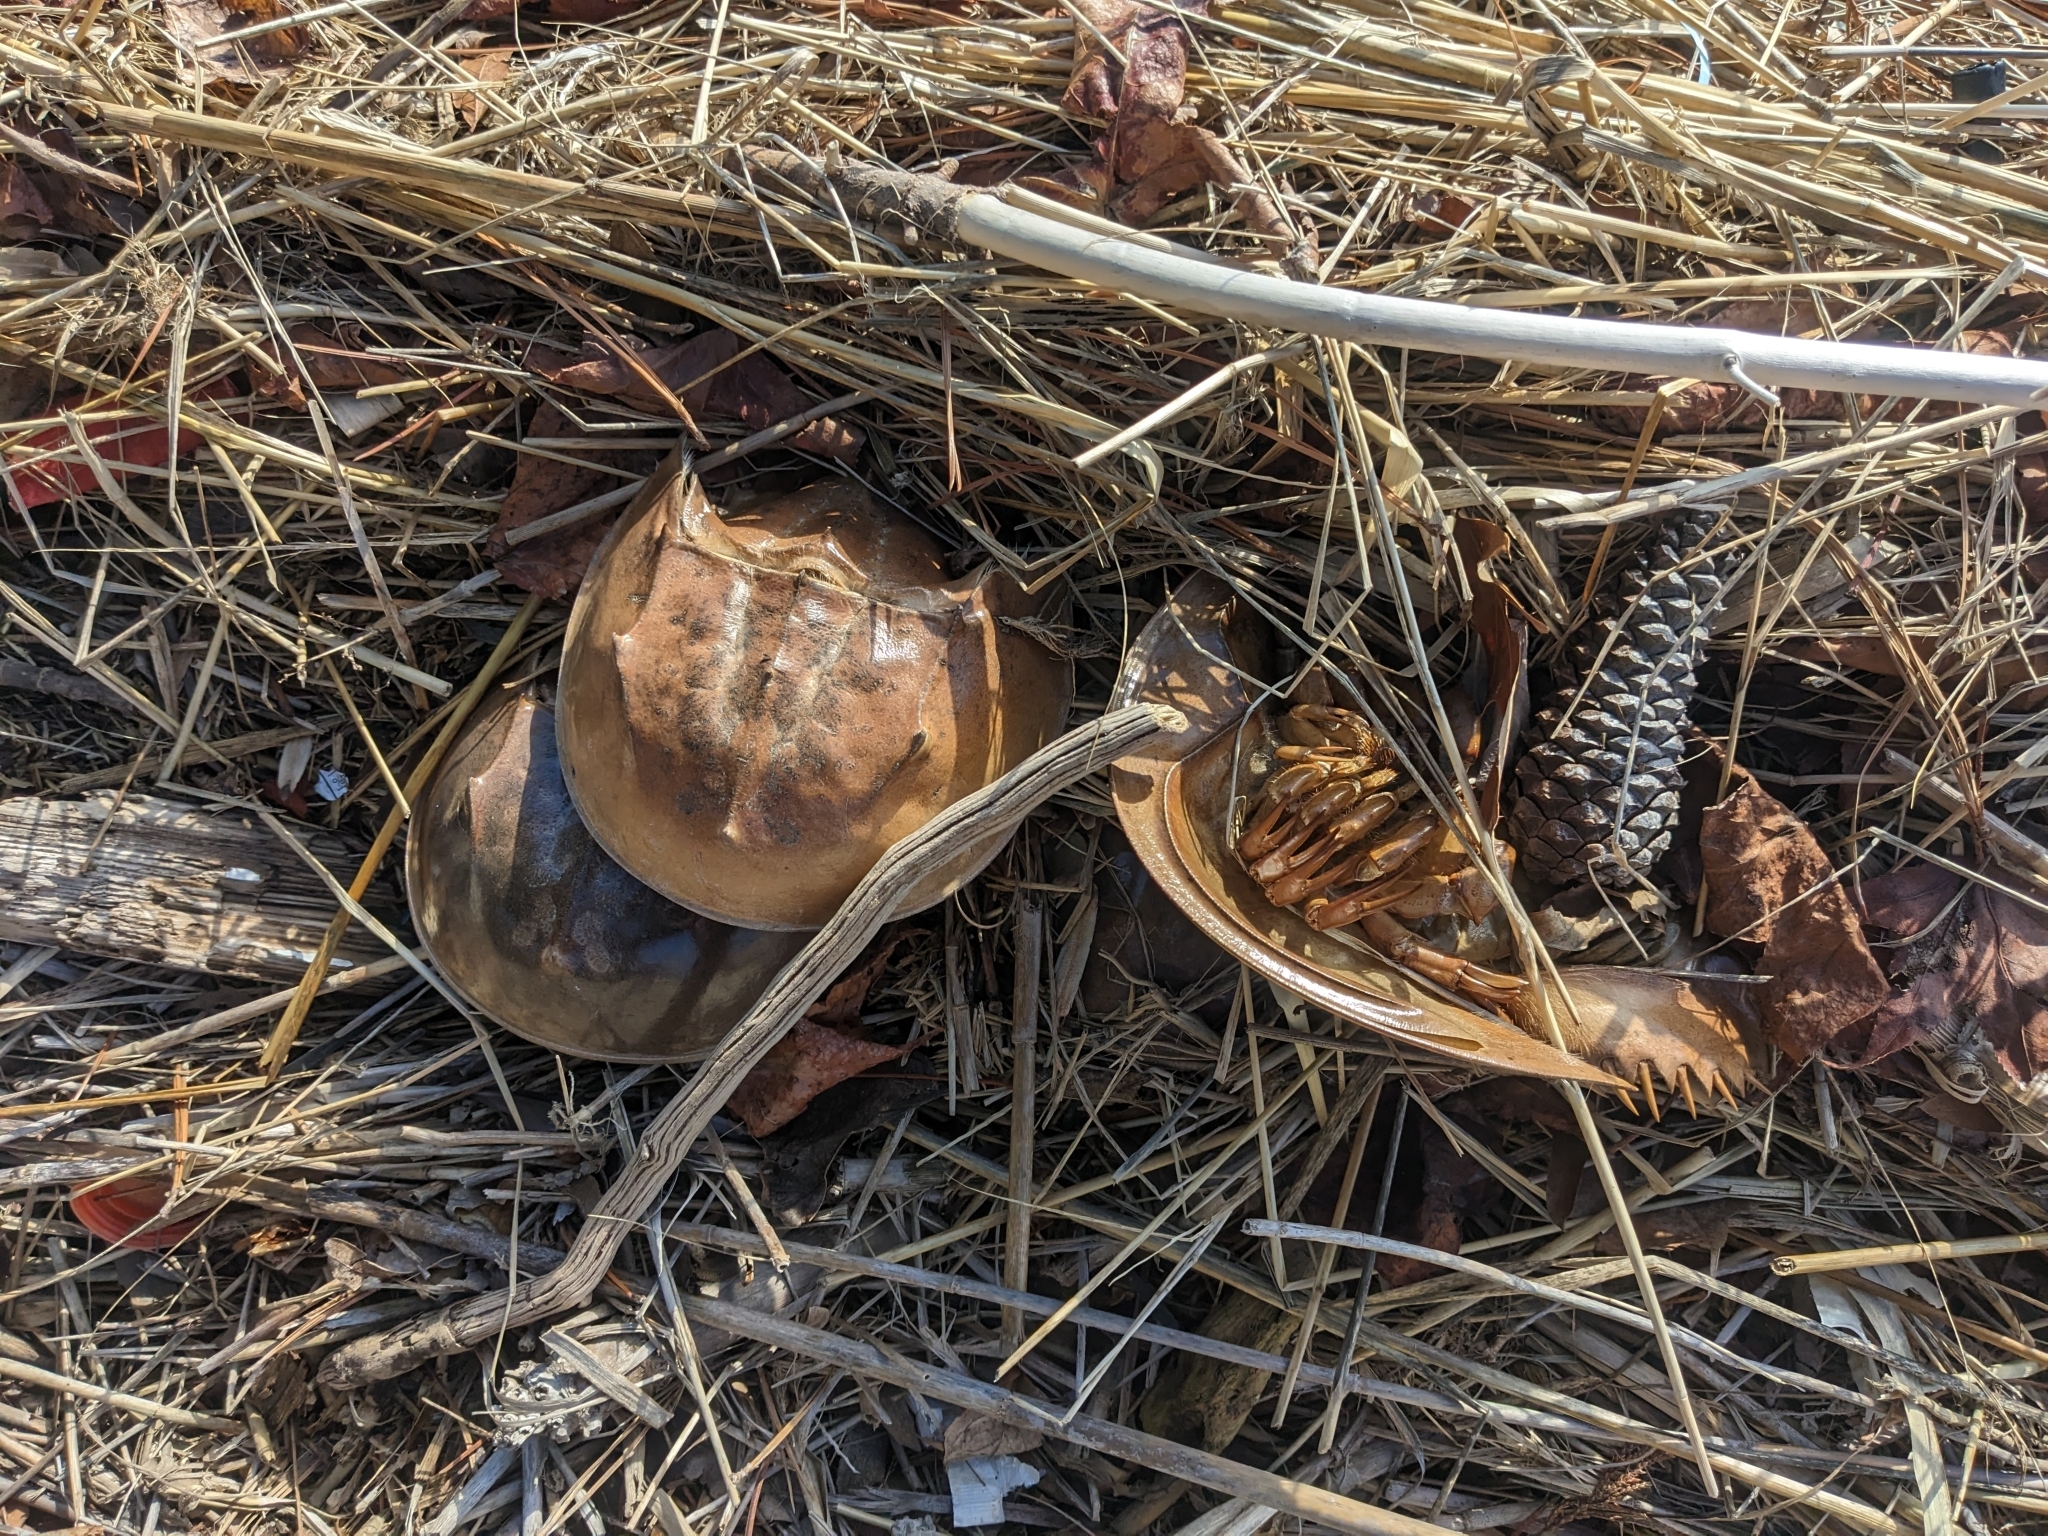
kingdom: Animalia
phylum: Arthropoda
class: Merostomata
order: Xiphosurida
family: Limulidae
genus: Limulus
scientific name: Limulus polyphemus
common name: Horseshoe crab
